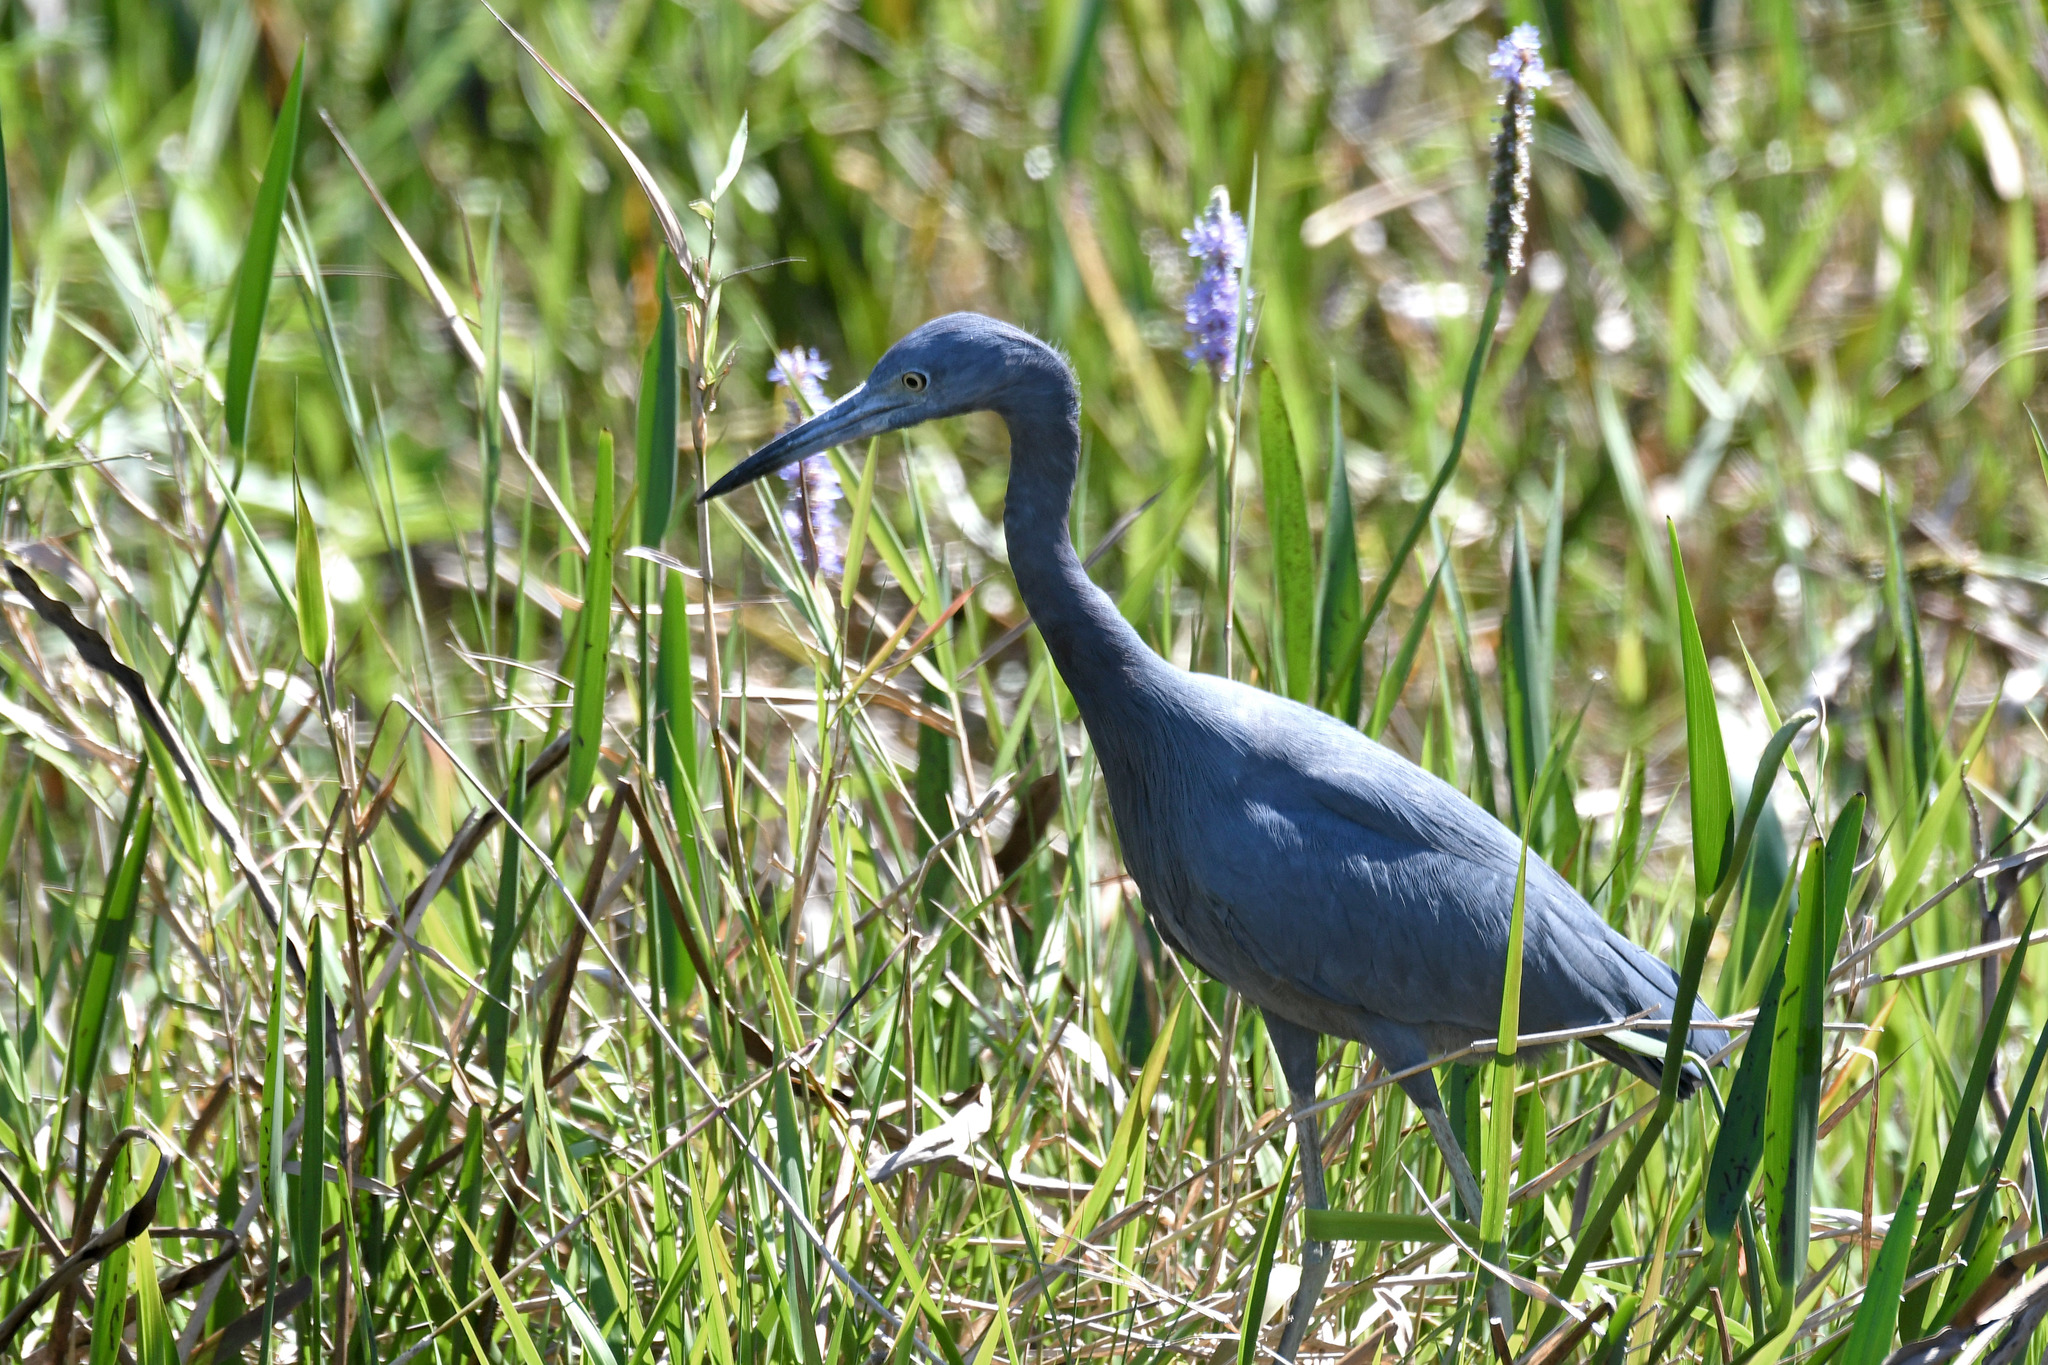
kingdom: Animalia
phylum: Chordata
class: Aves
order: Pelecaniformes
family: Ardeidae
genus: Egretta
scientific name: Egretta caerulea
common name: Little blue heron
